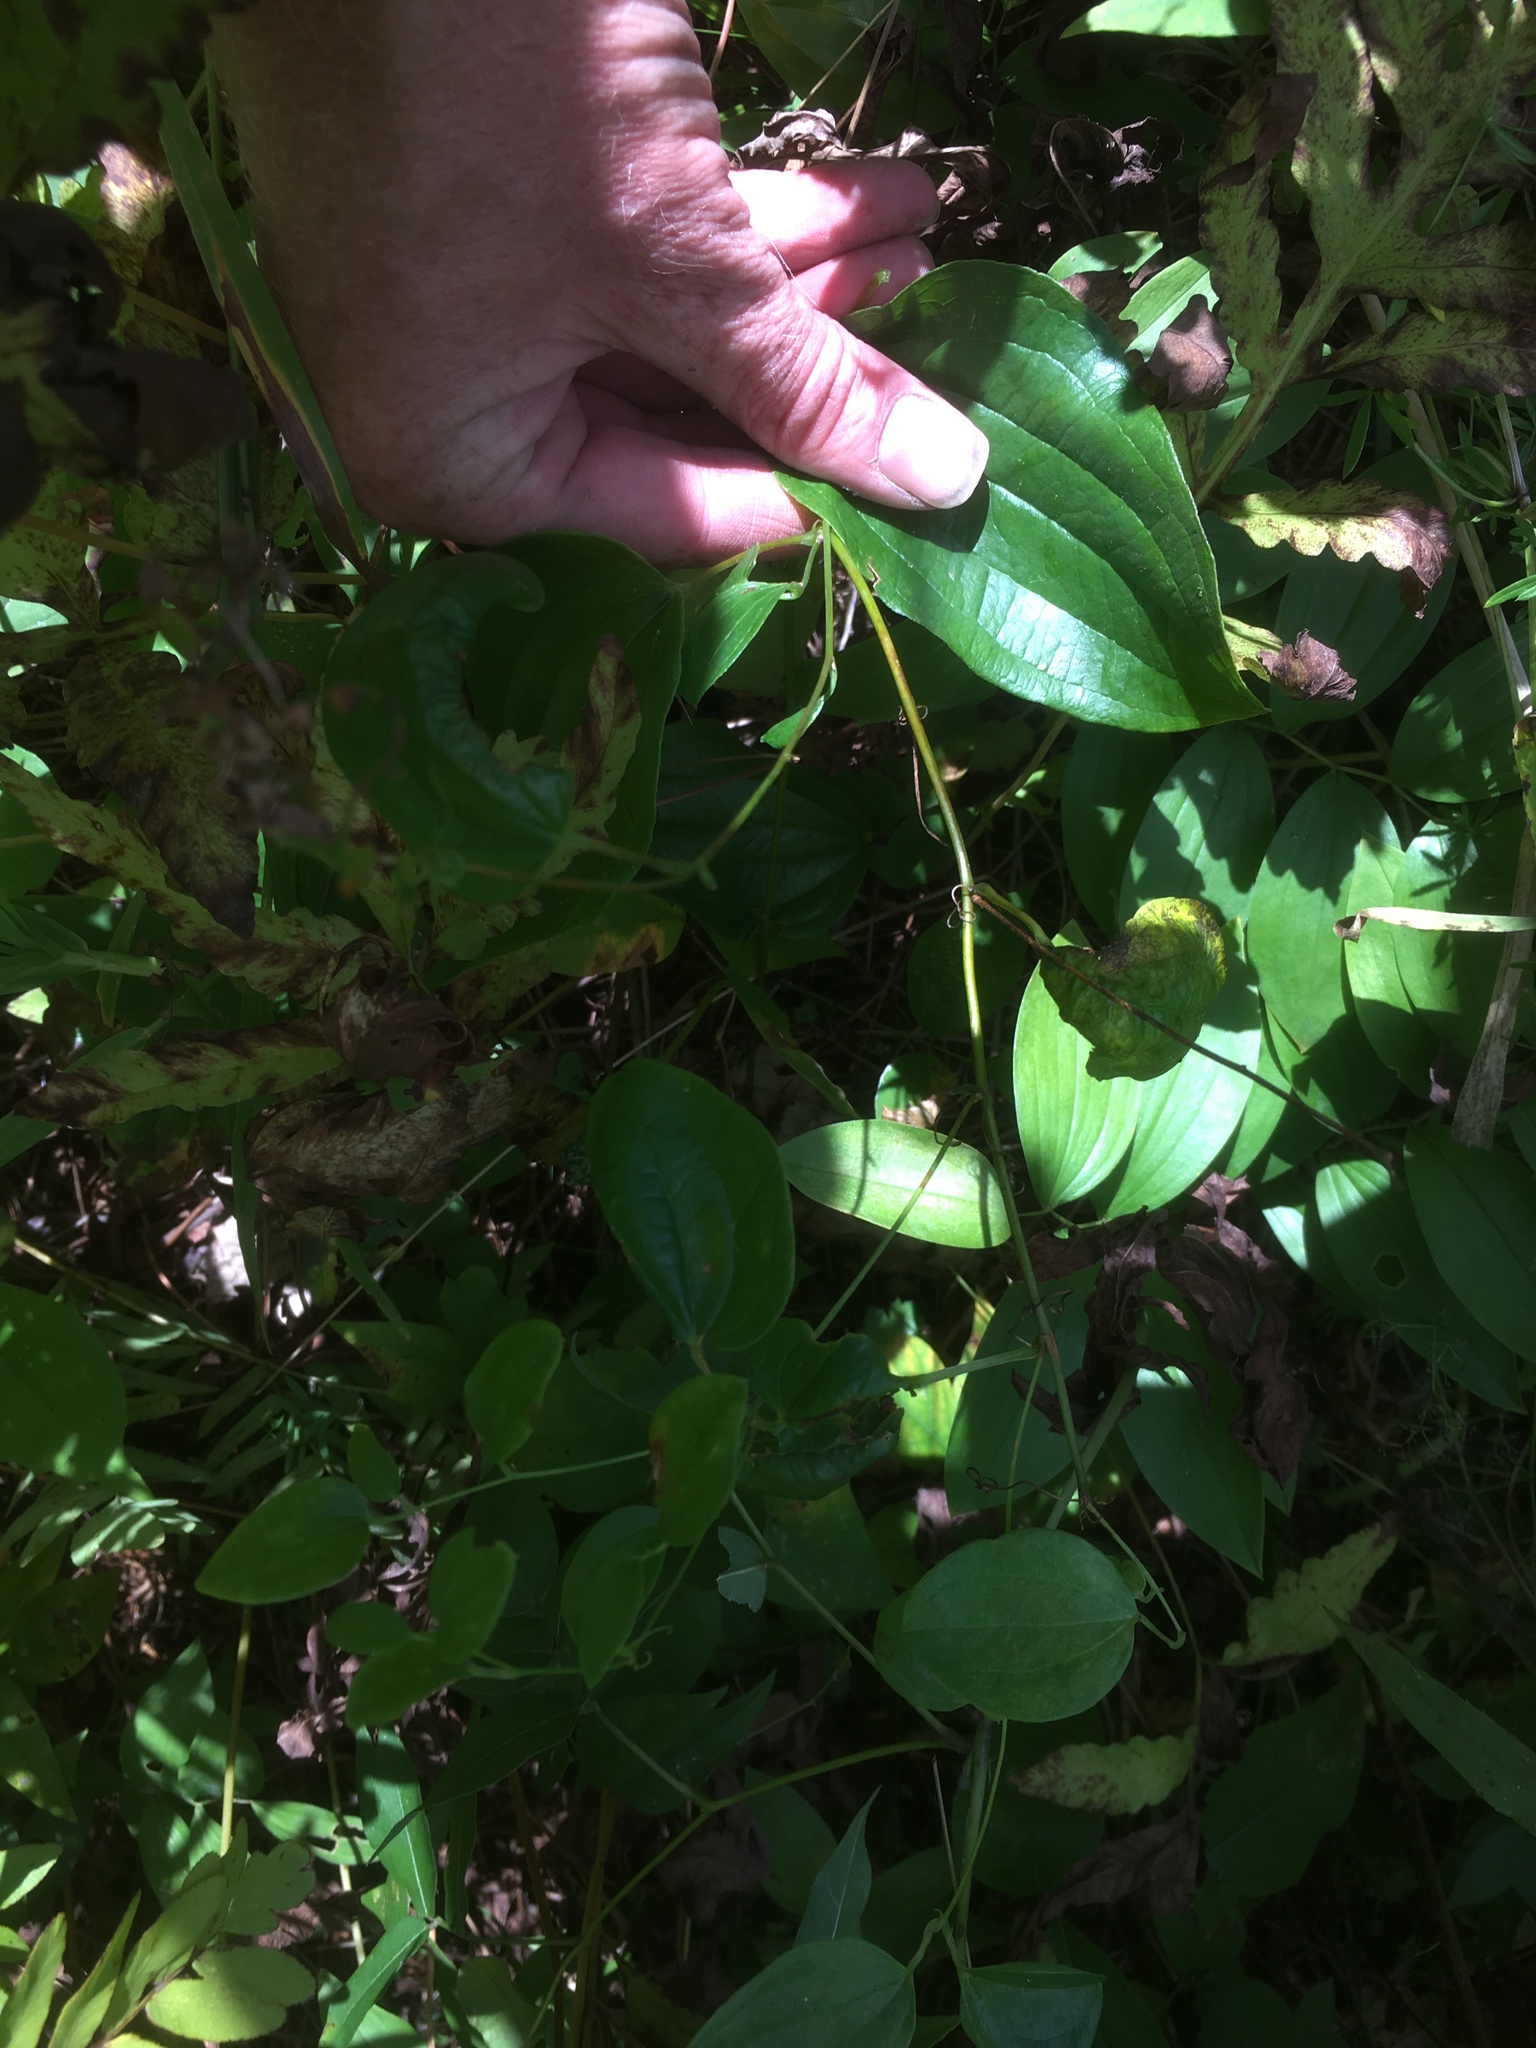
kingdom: Plantae
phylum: Tracheophyta
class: Liliopsida
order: Liliales
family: Smilacaceae
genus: Smilax
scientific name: Smilax herbacea
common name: Jacob's-ladder
